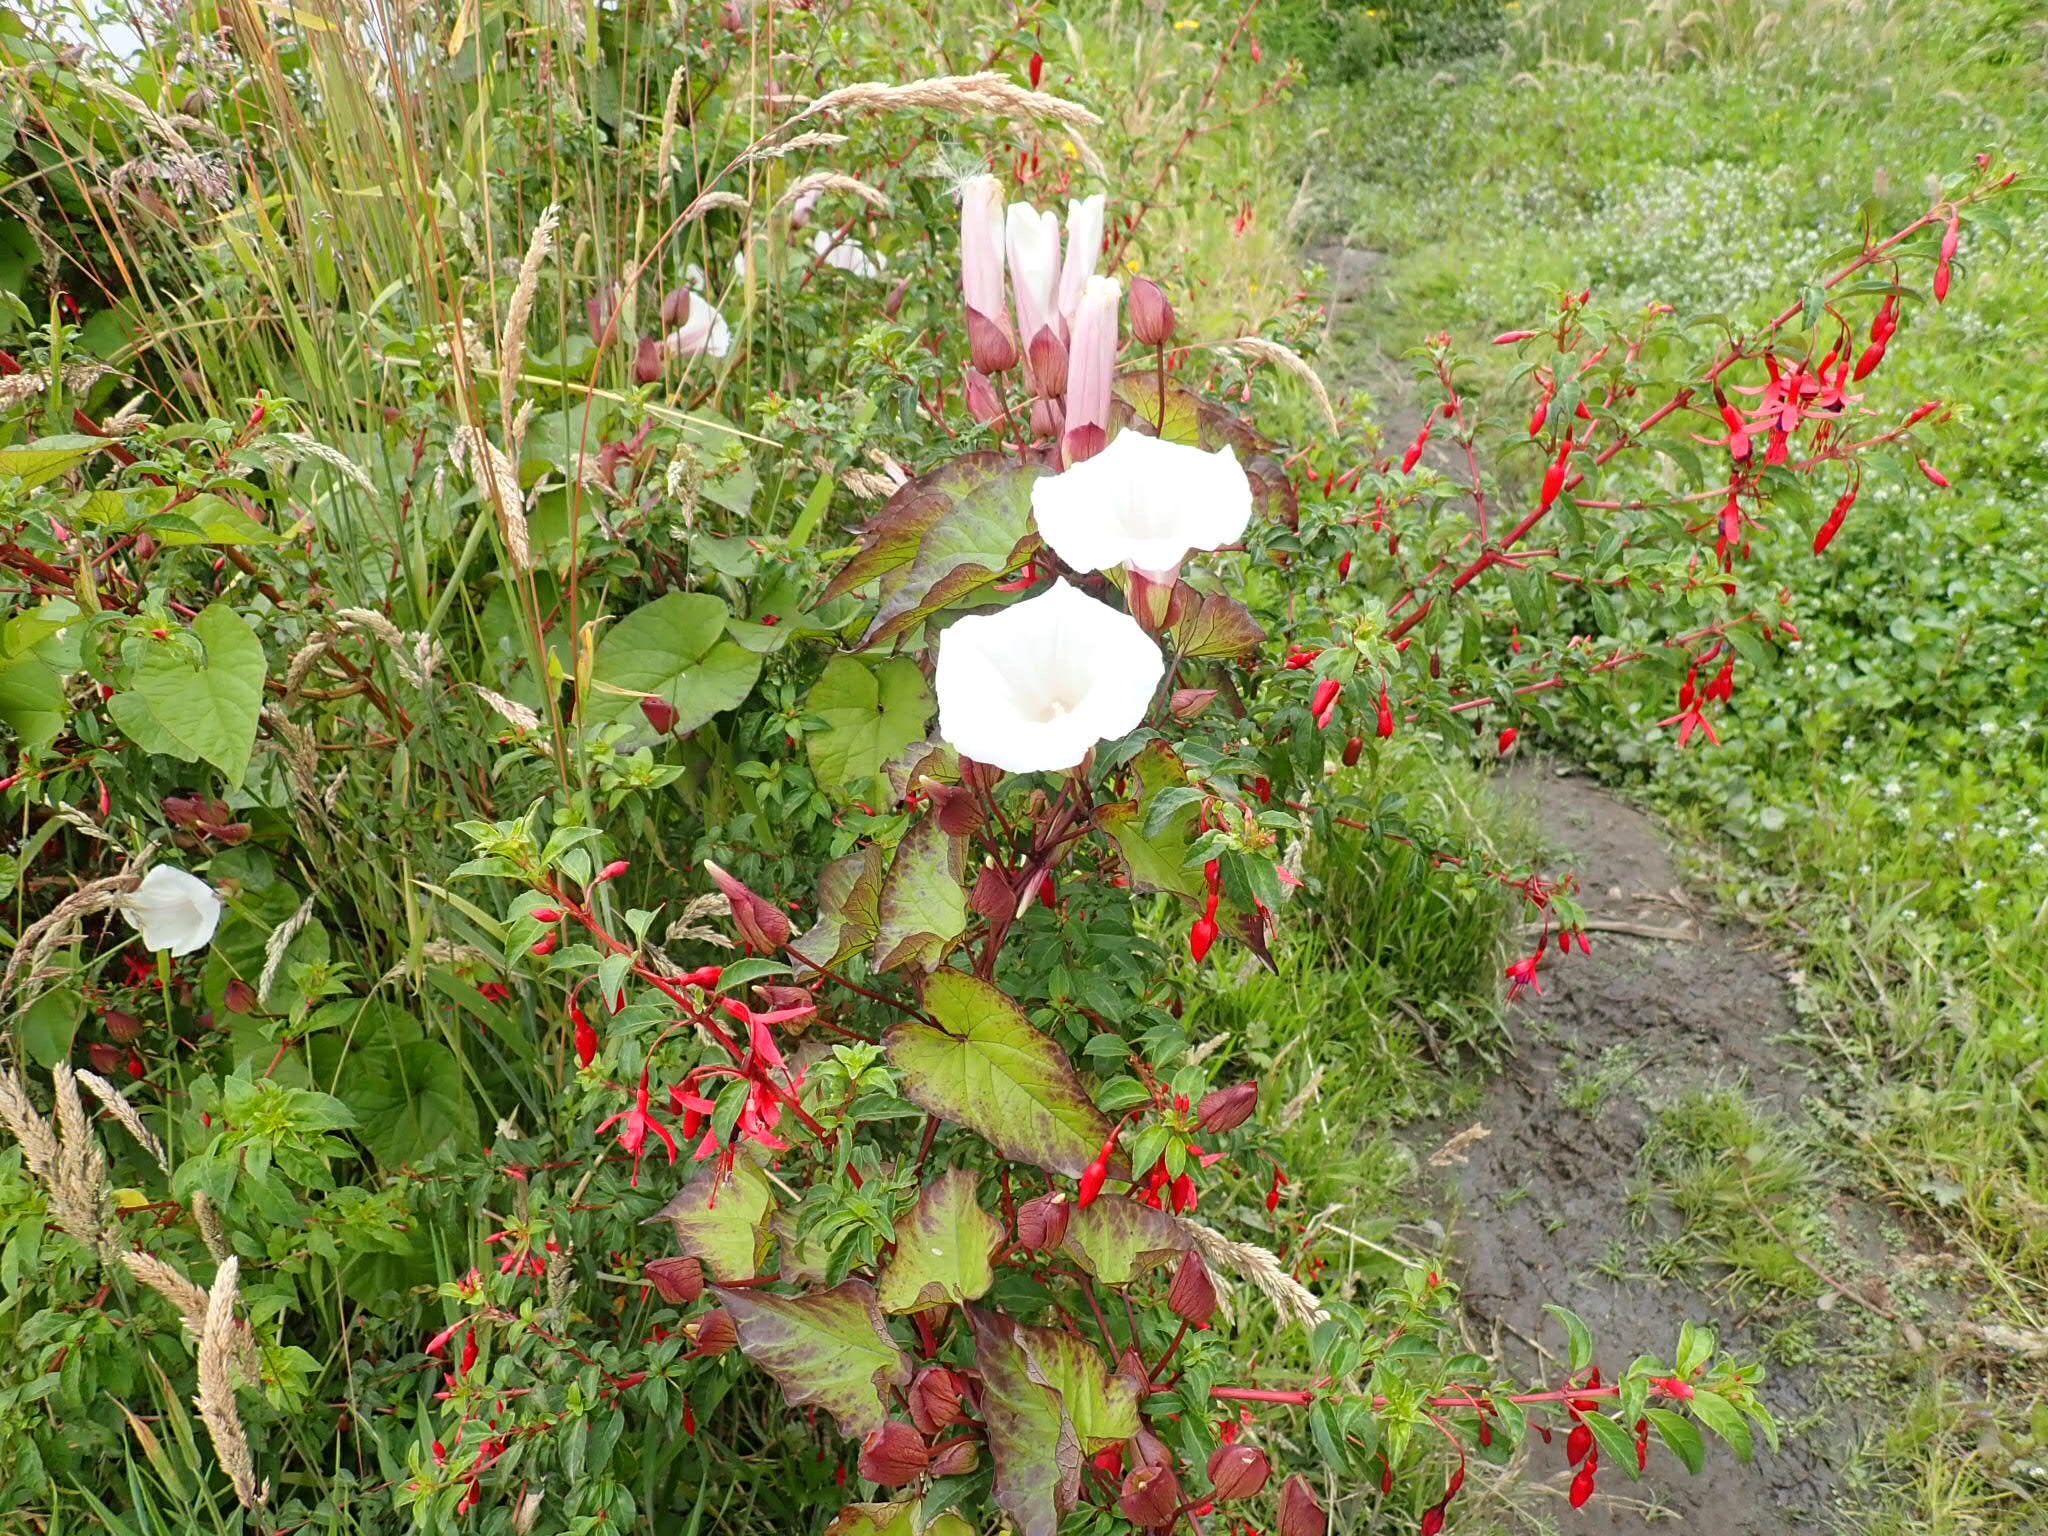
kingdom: Plantae
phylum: Tracheophyta
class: Magnoliopsida
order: Myrtales
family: Onagraceae
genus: Fuchsia
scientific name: Fuchsia magellanica
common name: Hardy fuchsia
